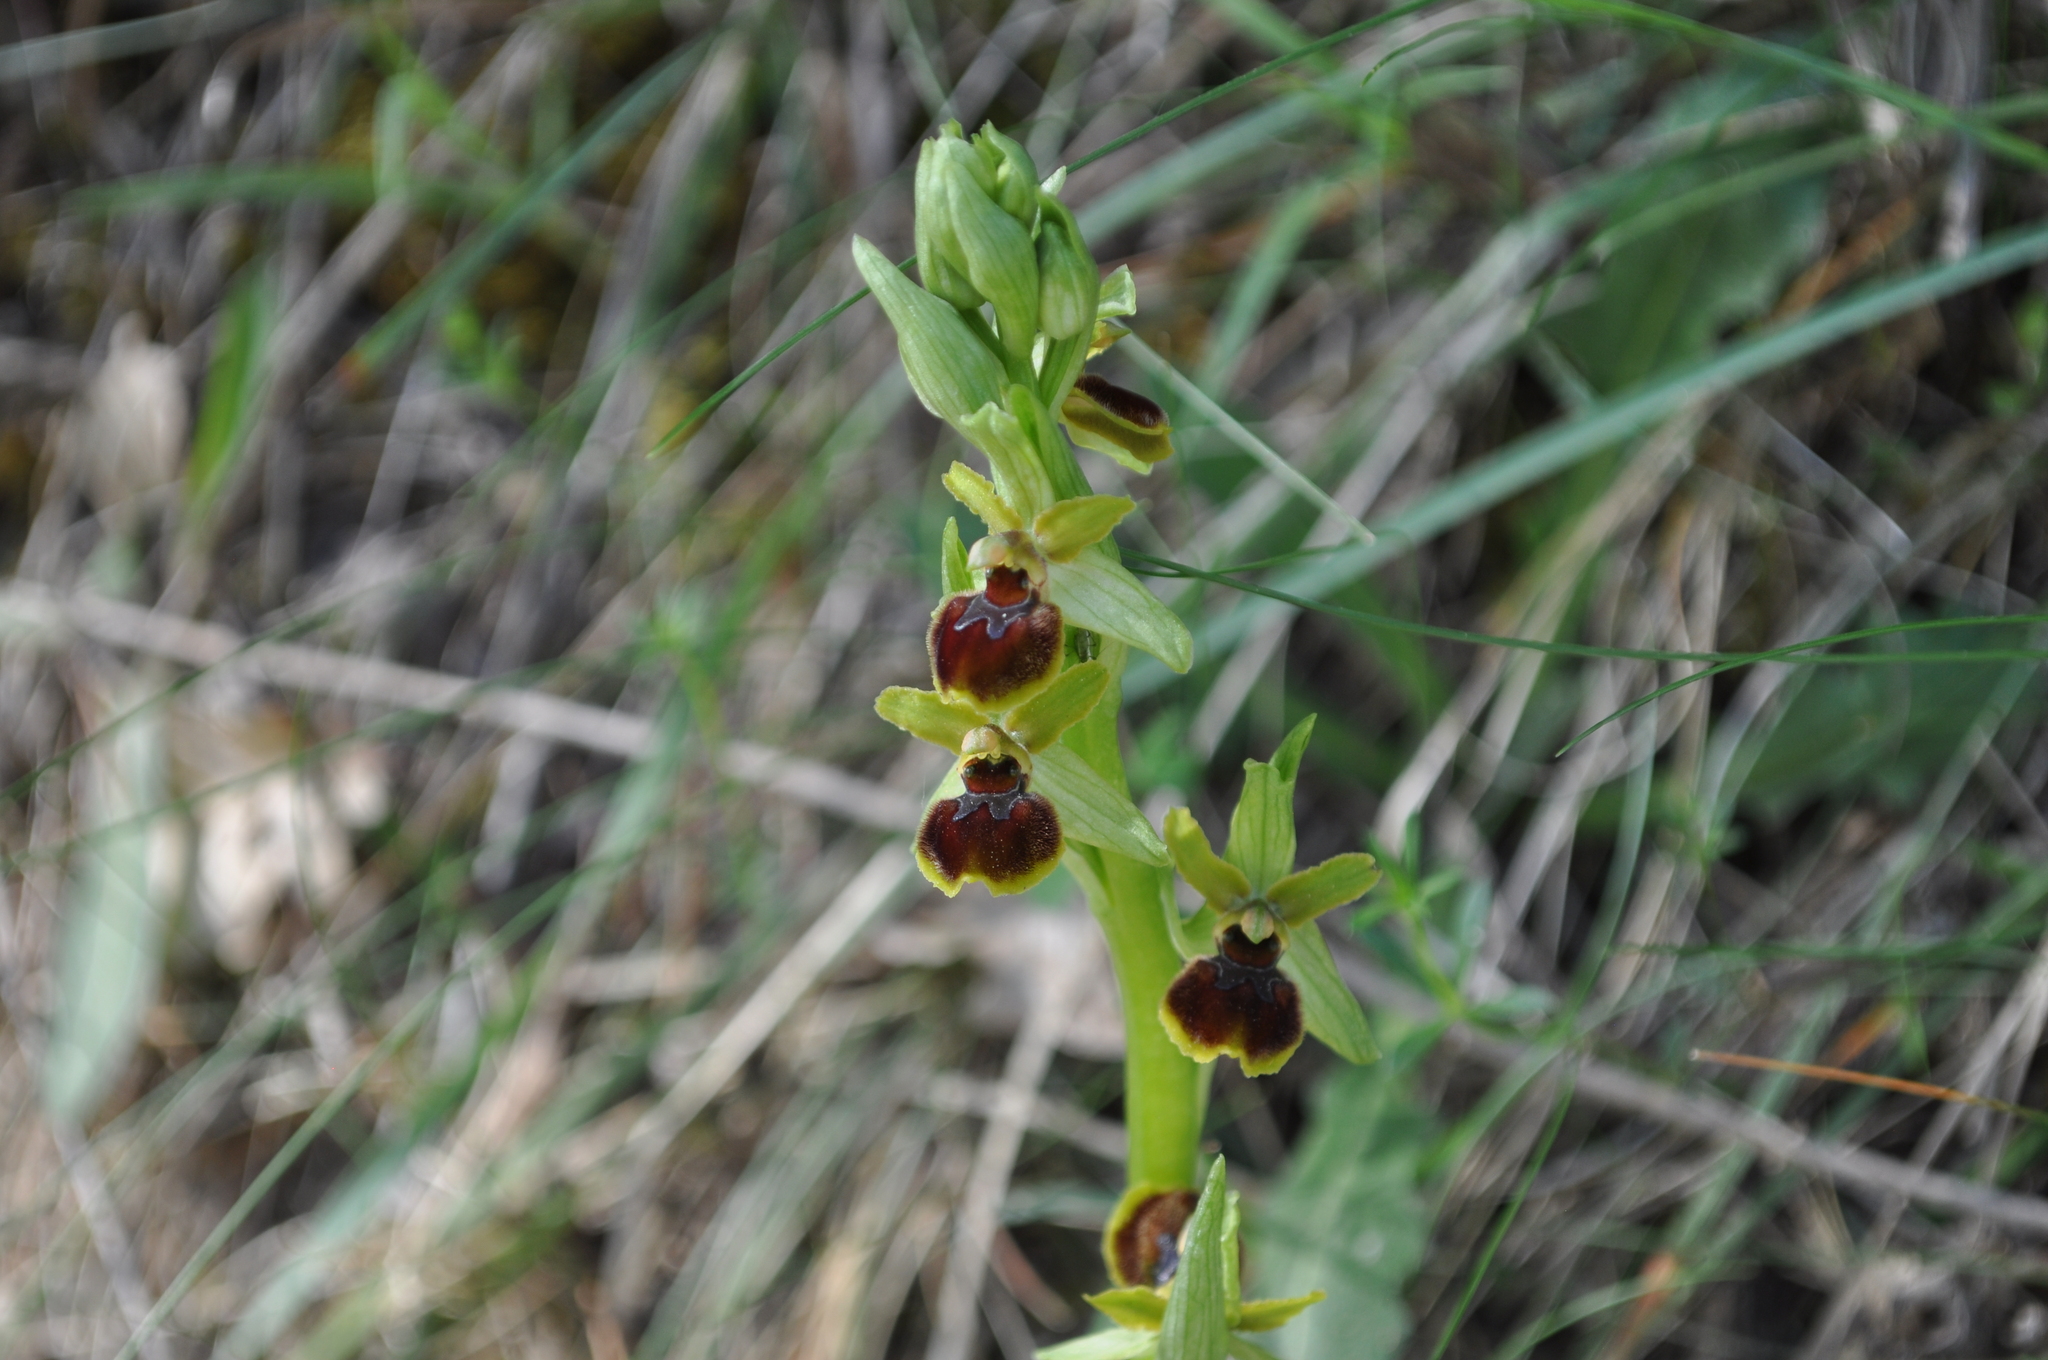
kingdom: Plantae
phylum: Tracheophyta
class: Liliopsida
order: Asparagales
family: Orchidaceae
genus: Ophrys
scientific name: Ophrys araneola
